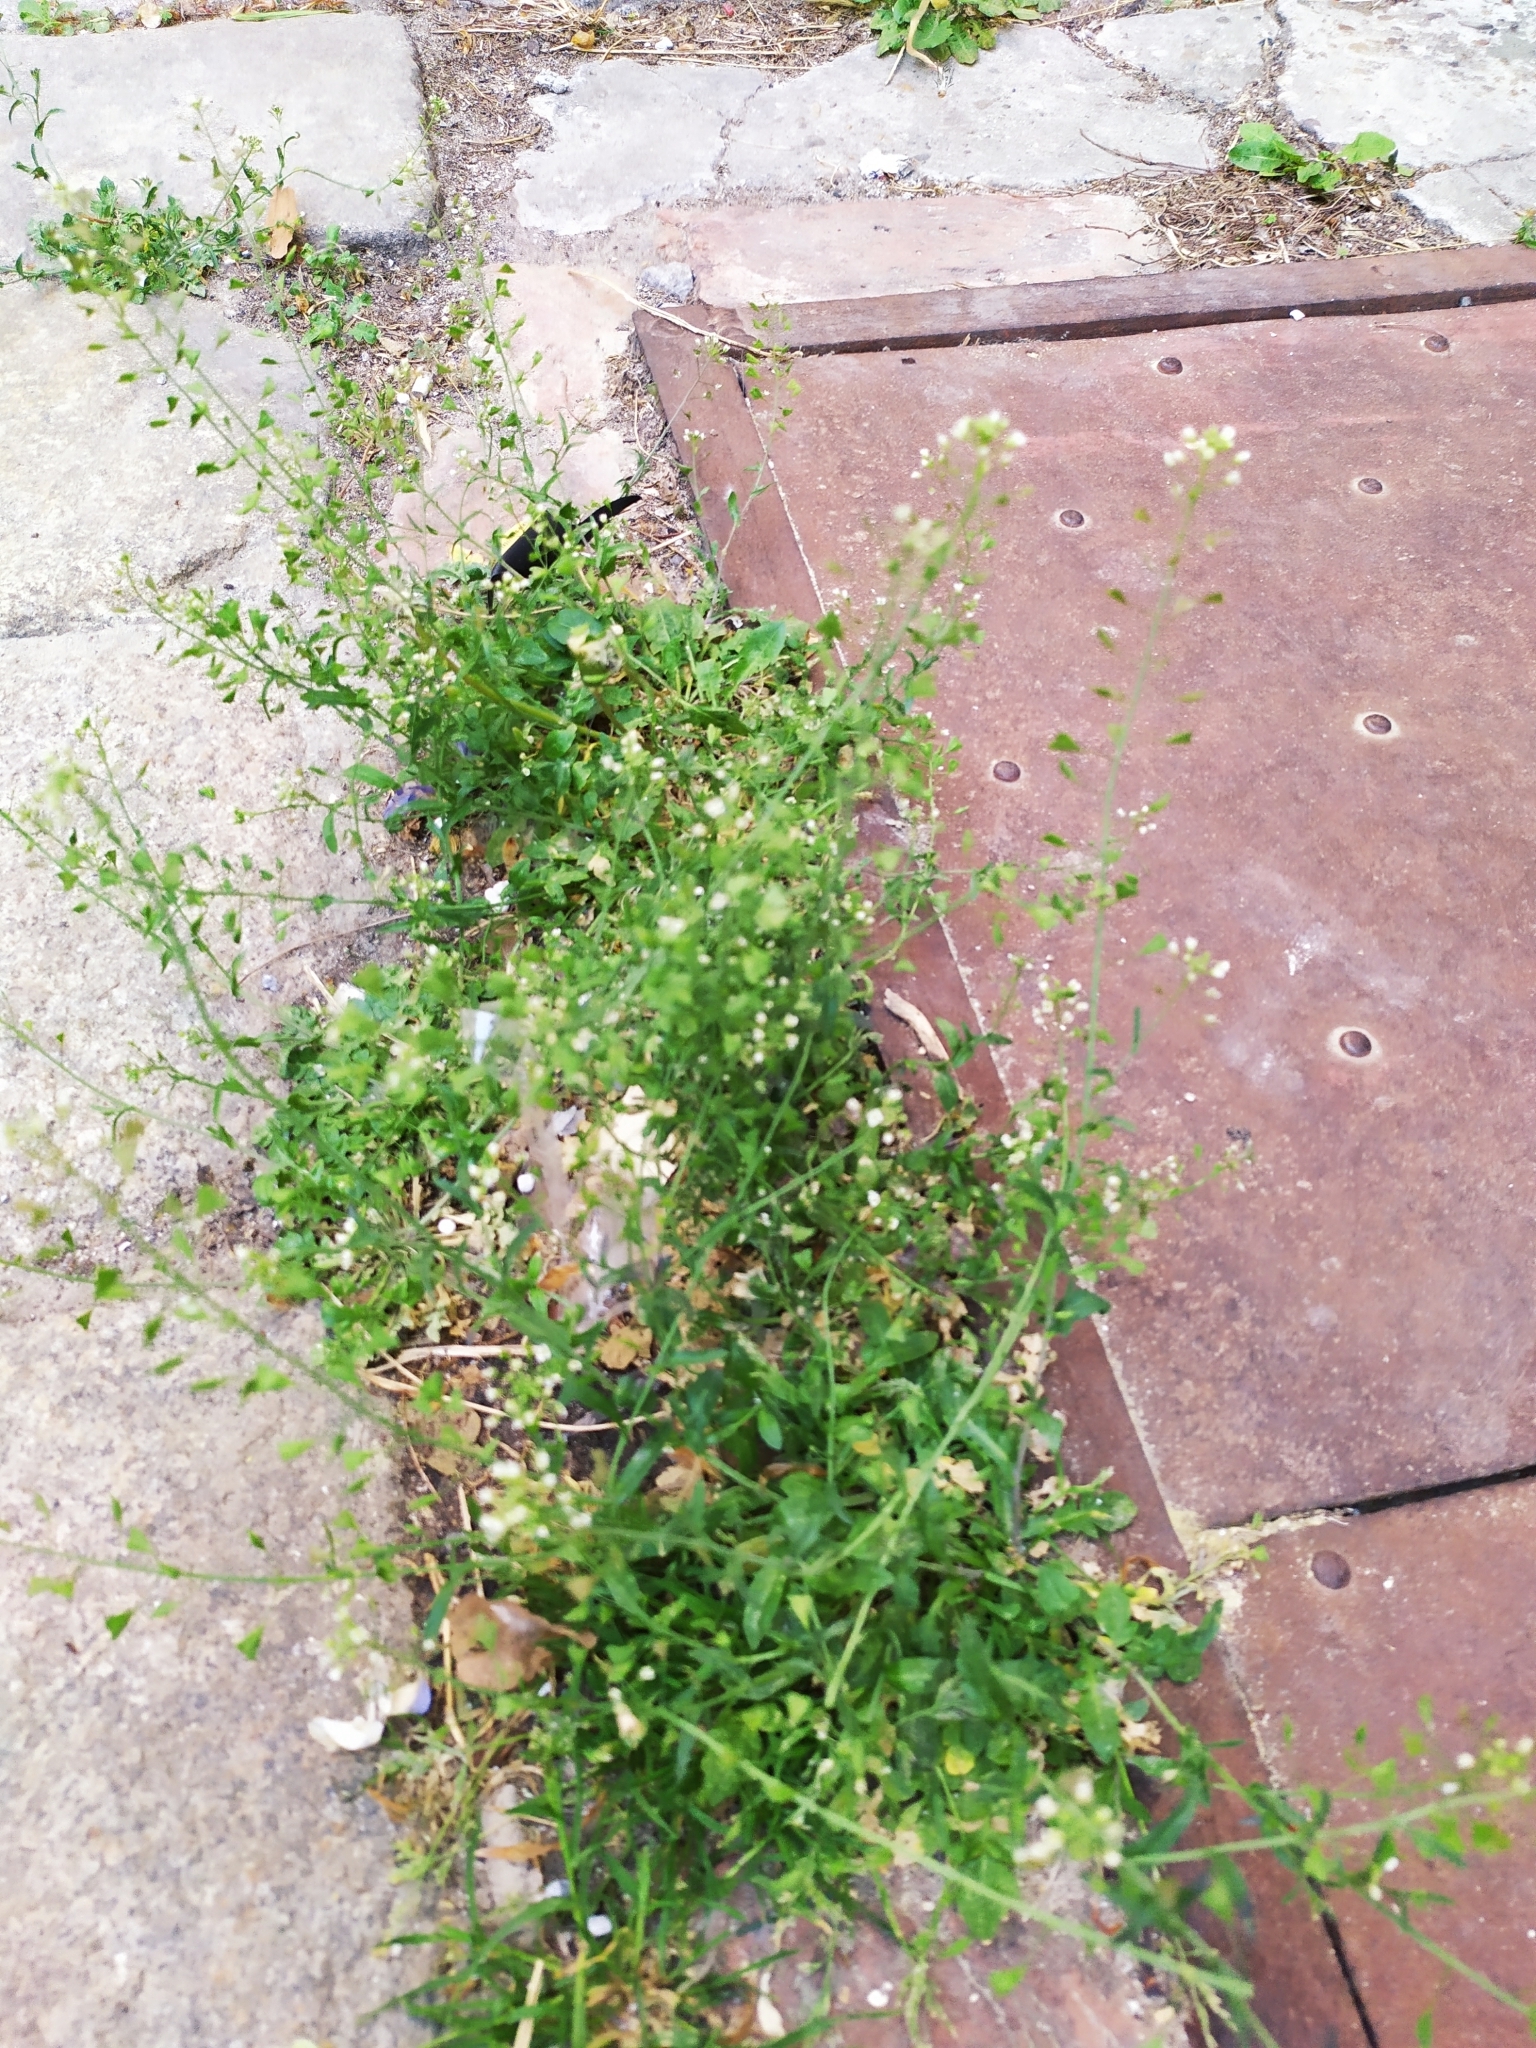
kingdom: Plantae
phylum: Tracheophyta
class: Magnoliopsida
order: Brassicales
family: Brassicaceae
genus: Capsella
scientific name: Capsella bursa-pastoris
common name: Shepherd's purse
